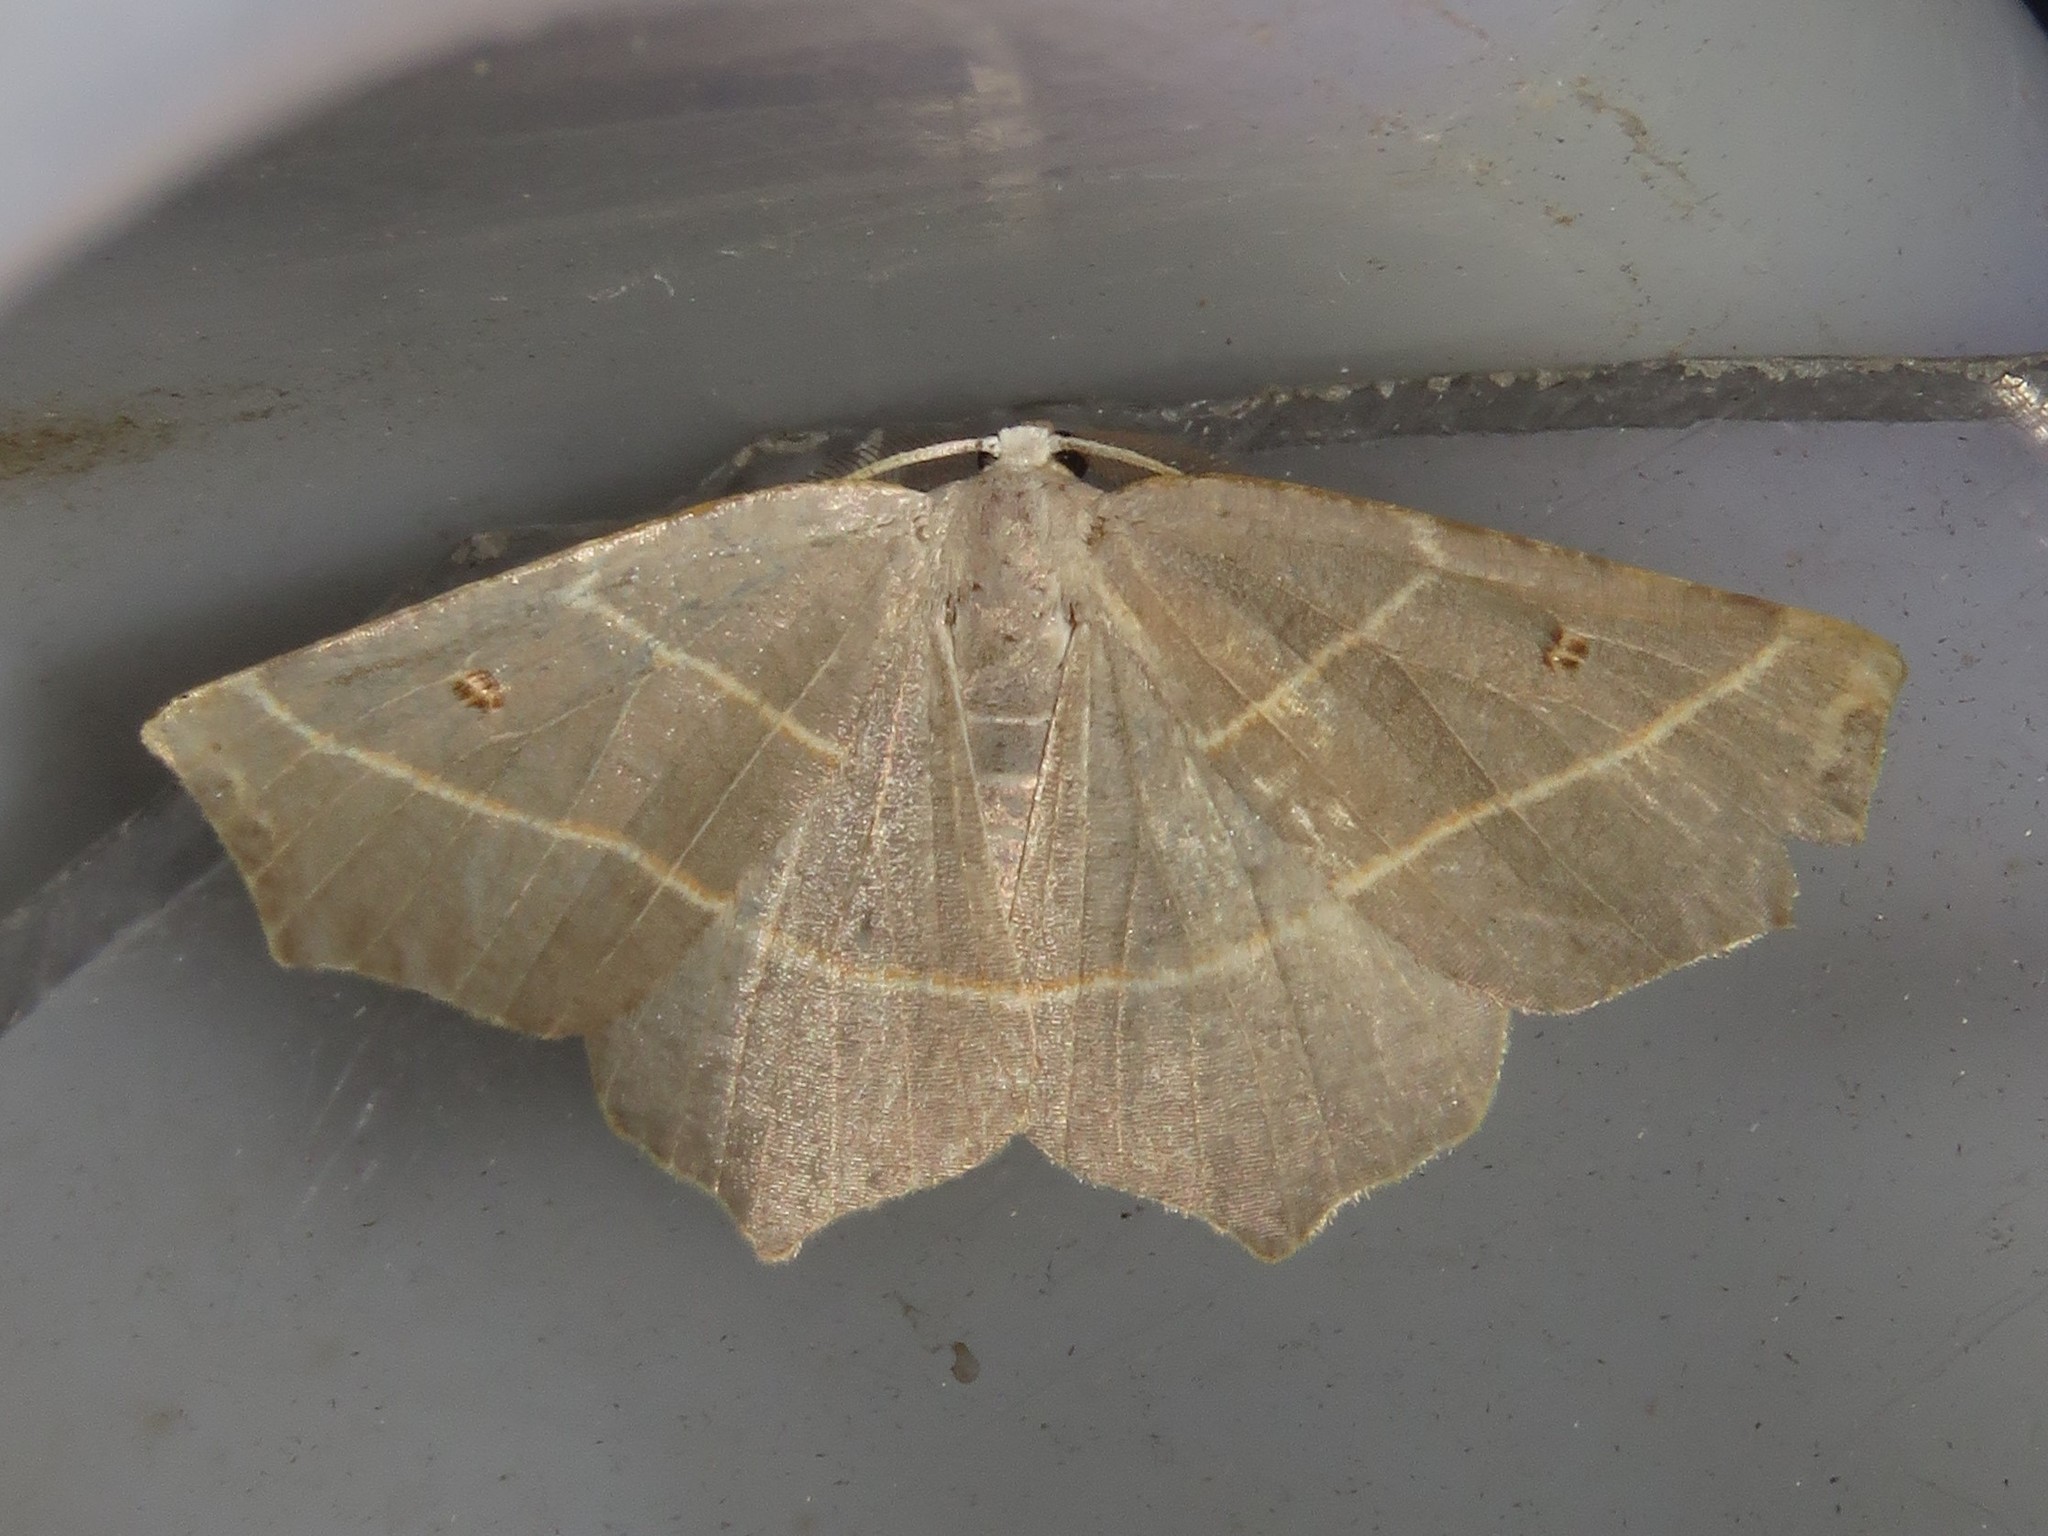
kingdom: Animalia
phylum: Arthropoda
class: Insecta
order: Lepidoptera
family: Geometridae
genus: Metanema
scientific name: Metanema inatomaria
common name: Pale metanema
